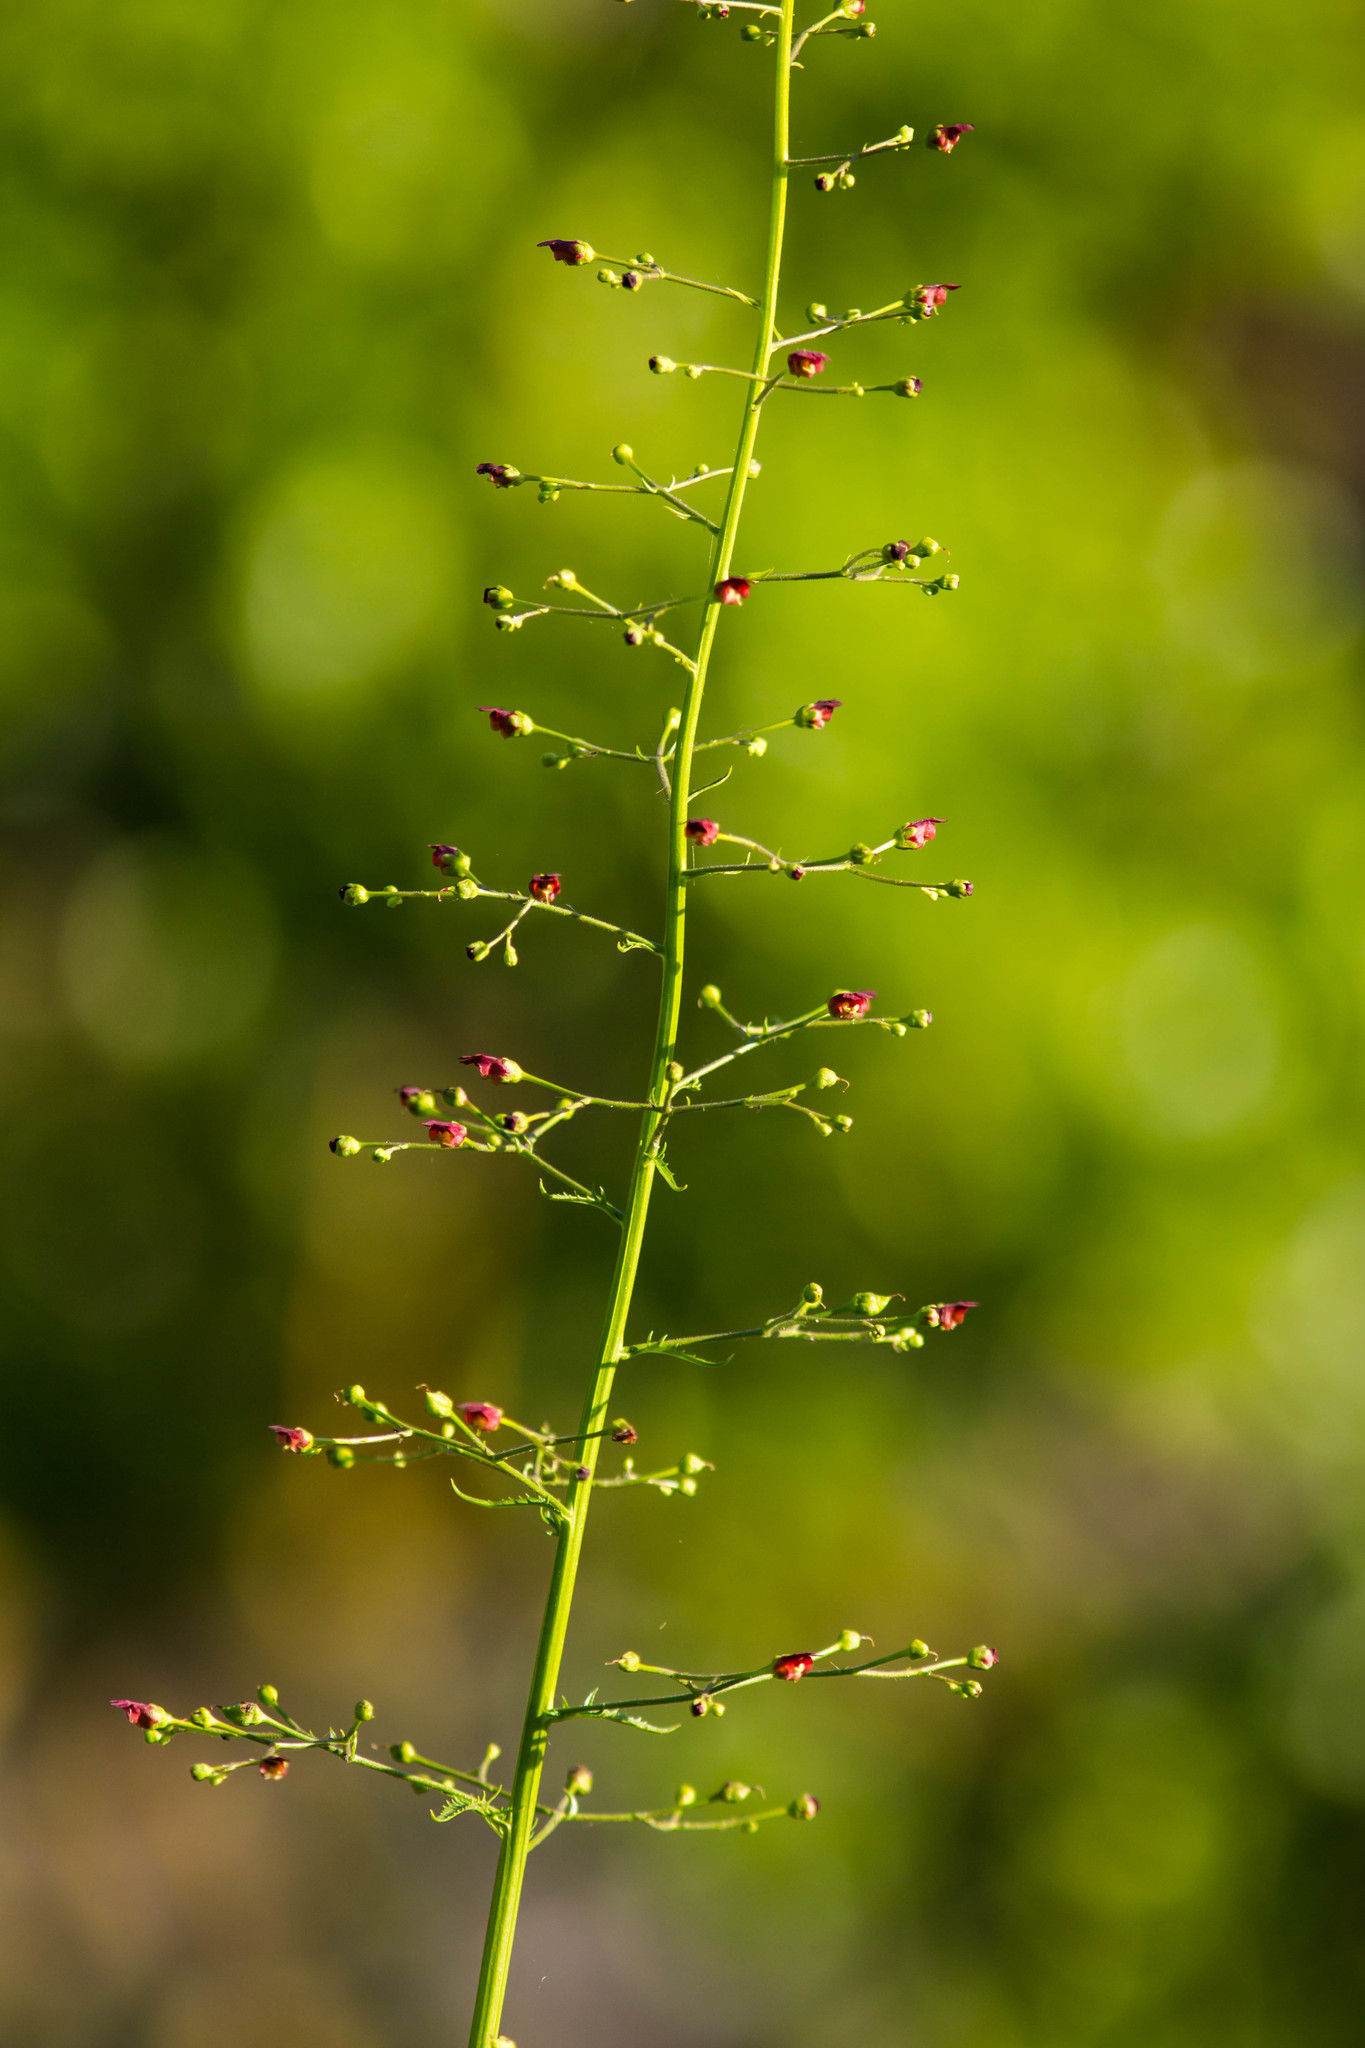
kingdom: Plantae
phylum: Tracheophyta
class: Magnoliopsida
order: Lamiales
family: Scrophulariaceae
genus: Scrophularia
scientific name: Scrophularia californica
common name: California figwort
